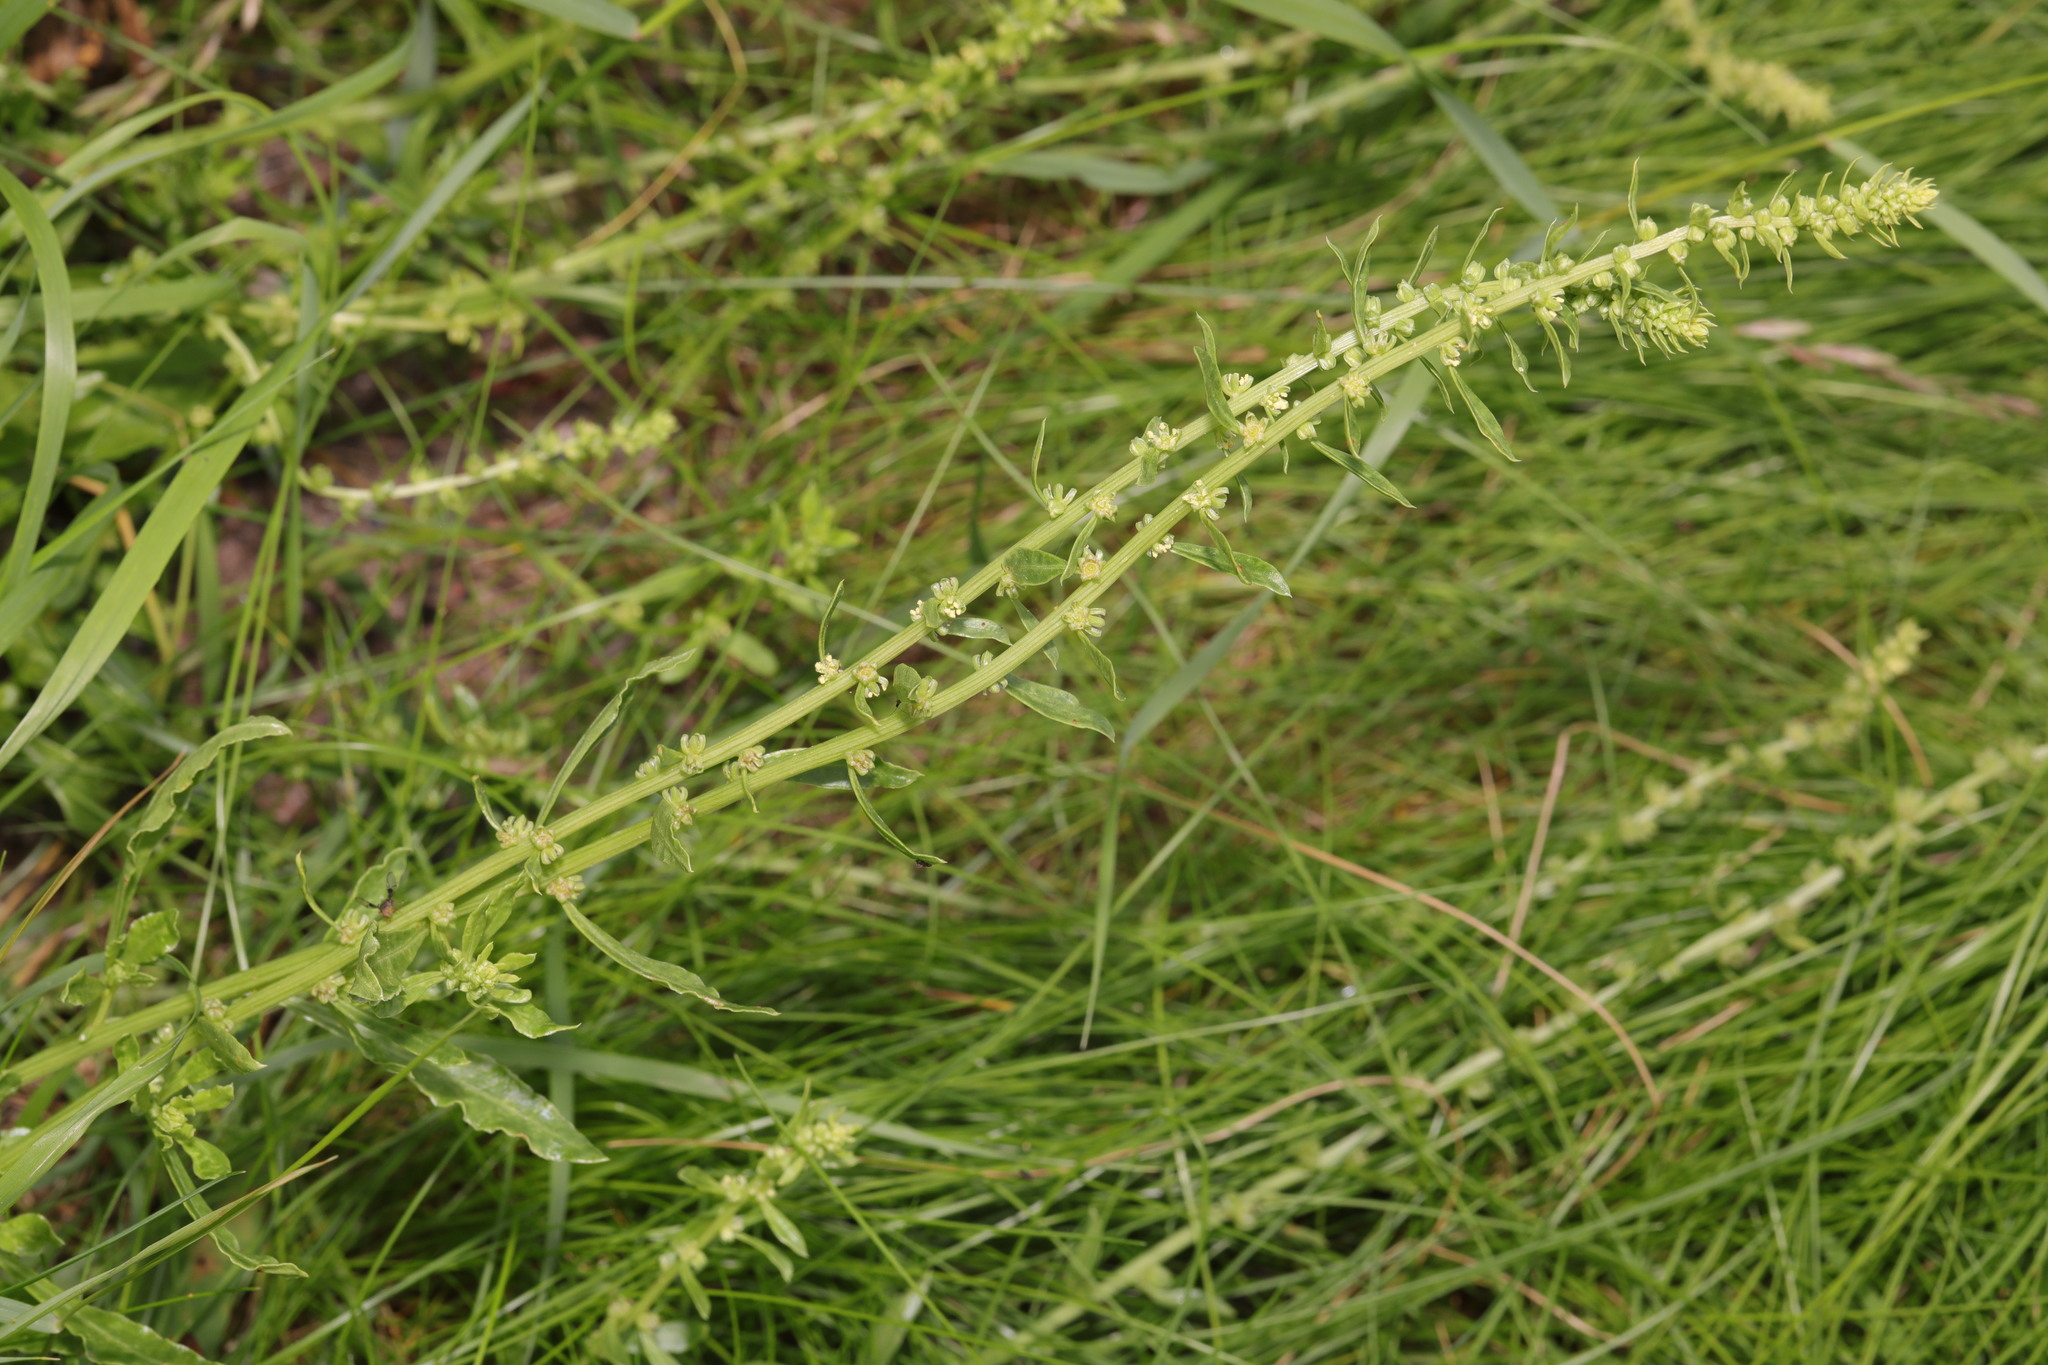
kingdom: Plantae
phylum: Tracheophyta
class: Magnoliopsida
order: Caryophyllales
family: Amaranthaceae
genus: Beta
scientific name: Beta vulgaris
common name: Beet
